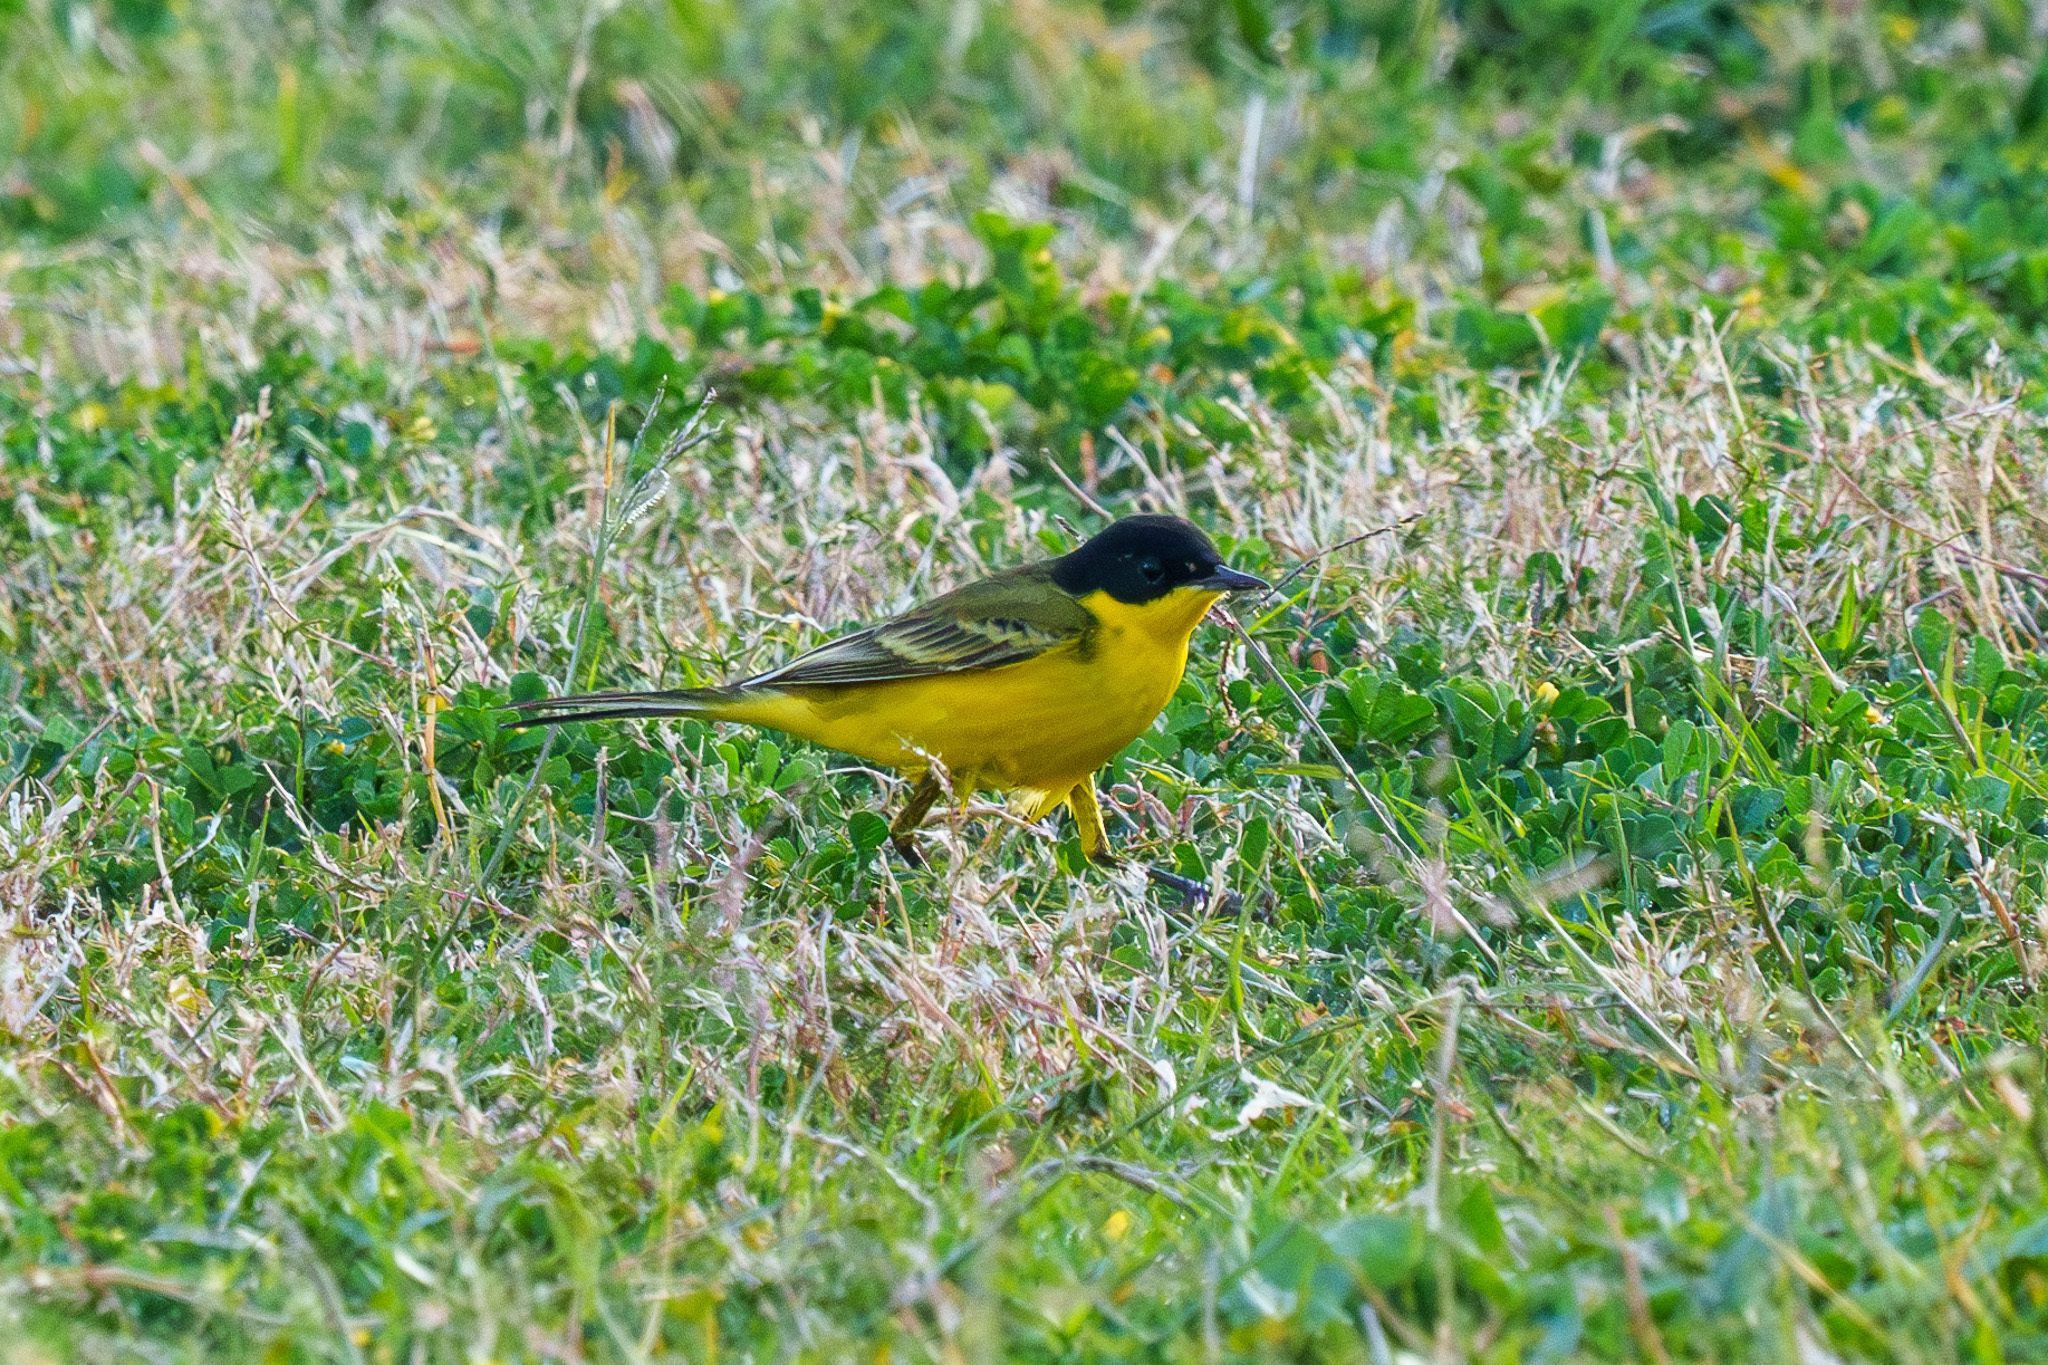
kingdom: Animalia
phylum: Chordata
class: Aves
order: Passeriformes
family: Motacillidae
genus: Motacilla
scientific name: Motacilla flava
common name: Western yellow wagtail
